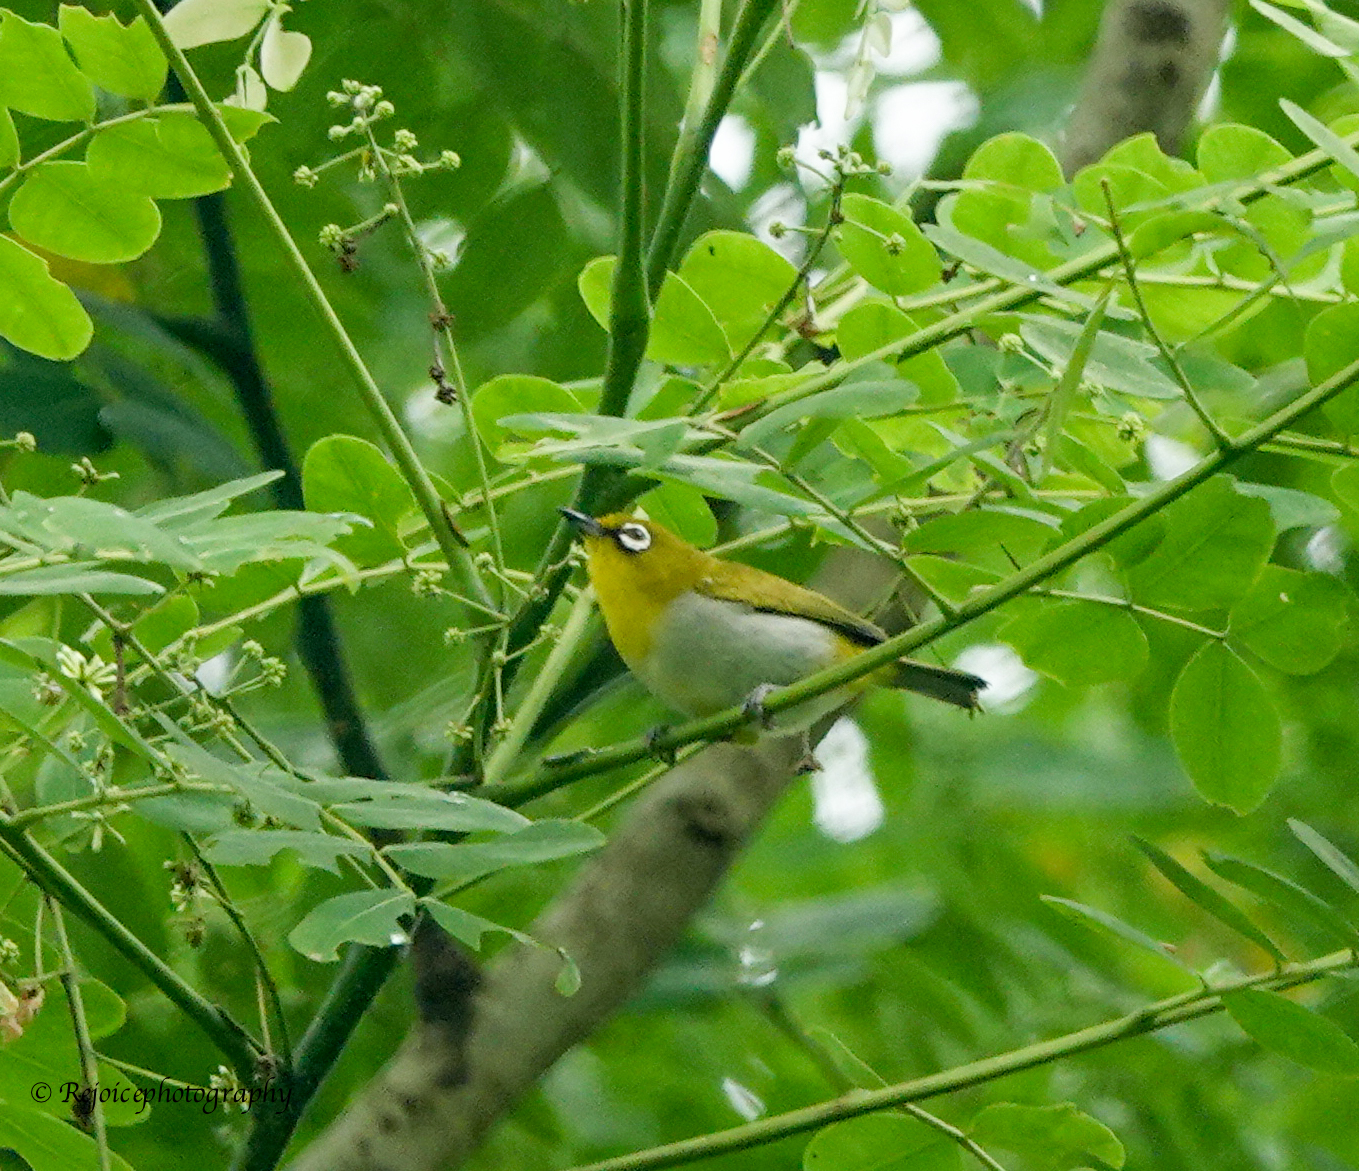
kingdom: Animalia
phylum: Chordata
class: Aves
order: Passeriformes
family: Zosteropidae
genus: Zosterops
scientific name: Zosterops palpebrosus
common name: Oriental white-eye
